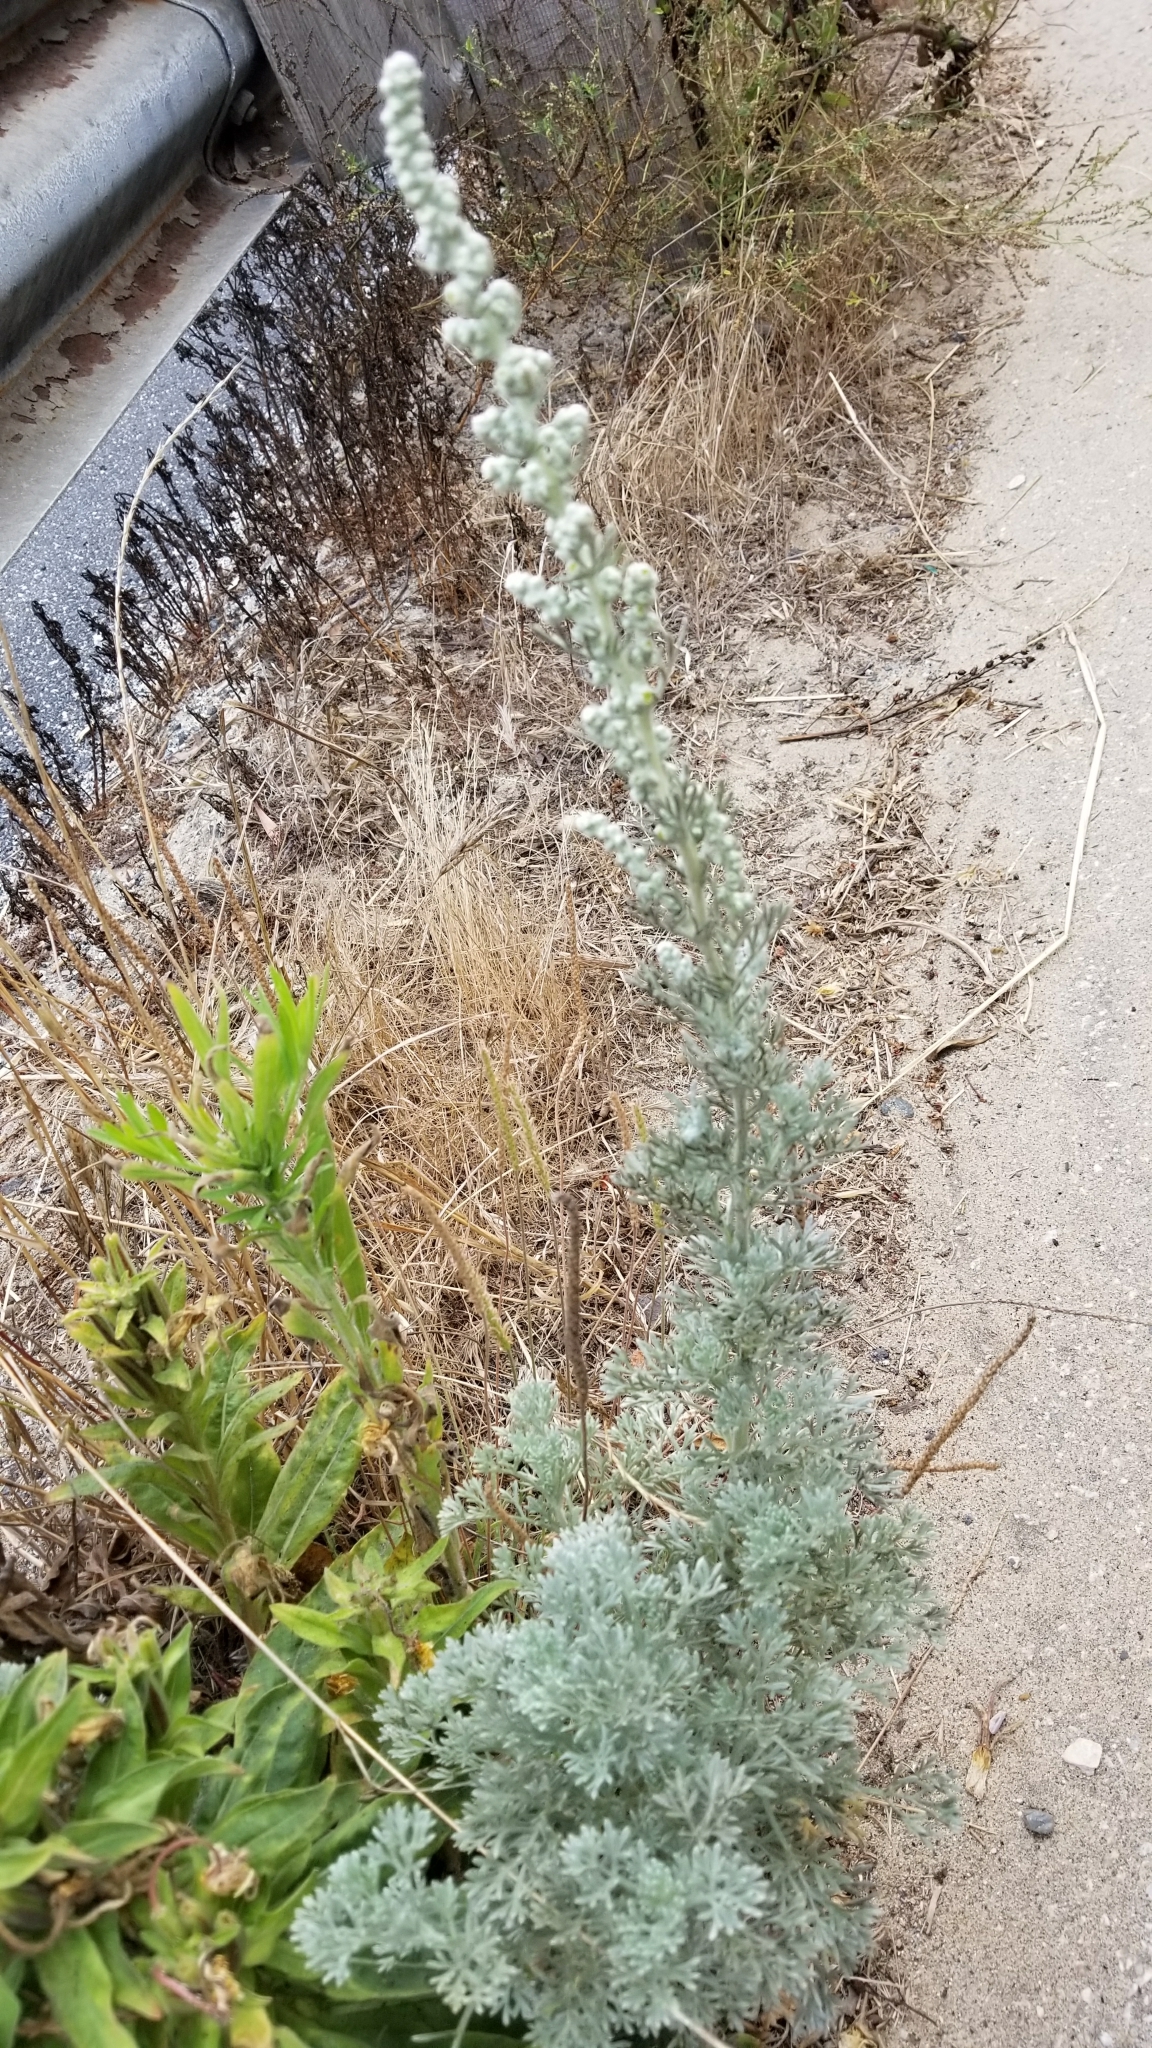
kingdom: Plantae
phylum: Tracheophyta
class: Magnoliopsida
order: Asterales
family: Asteraceae
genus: Artemisia
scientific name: Artemisia pycnocephala
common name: Coastal sagewort
